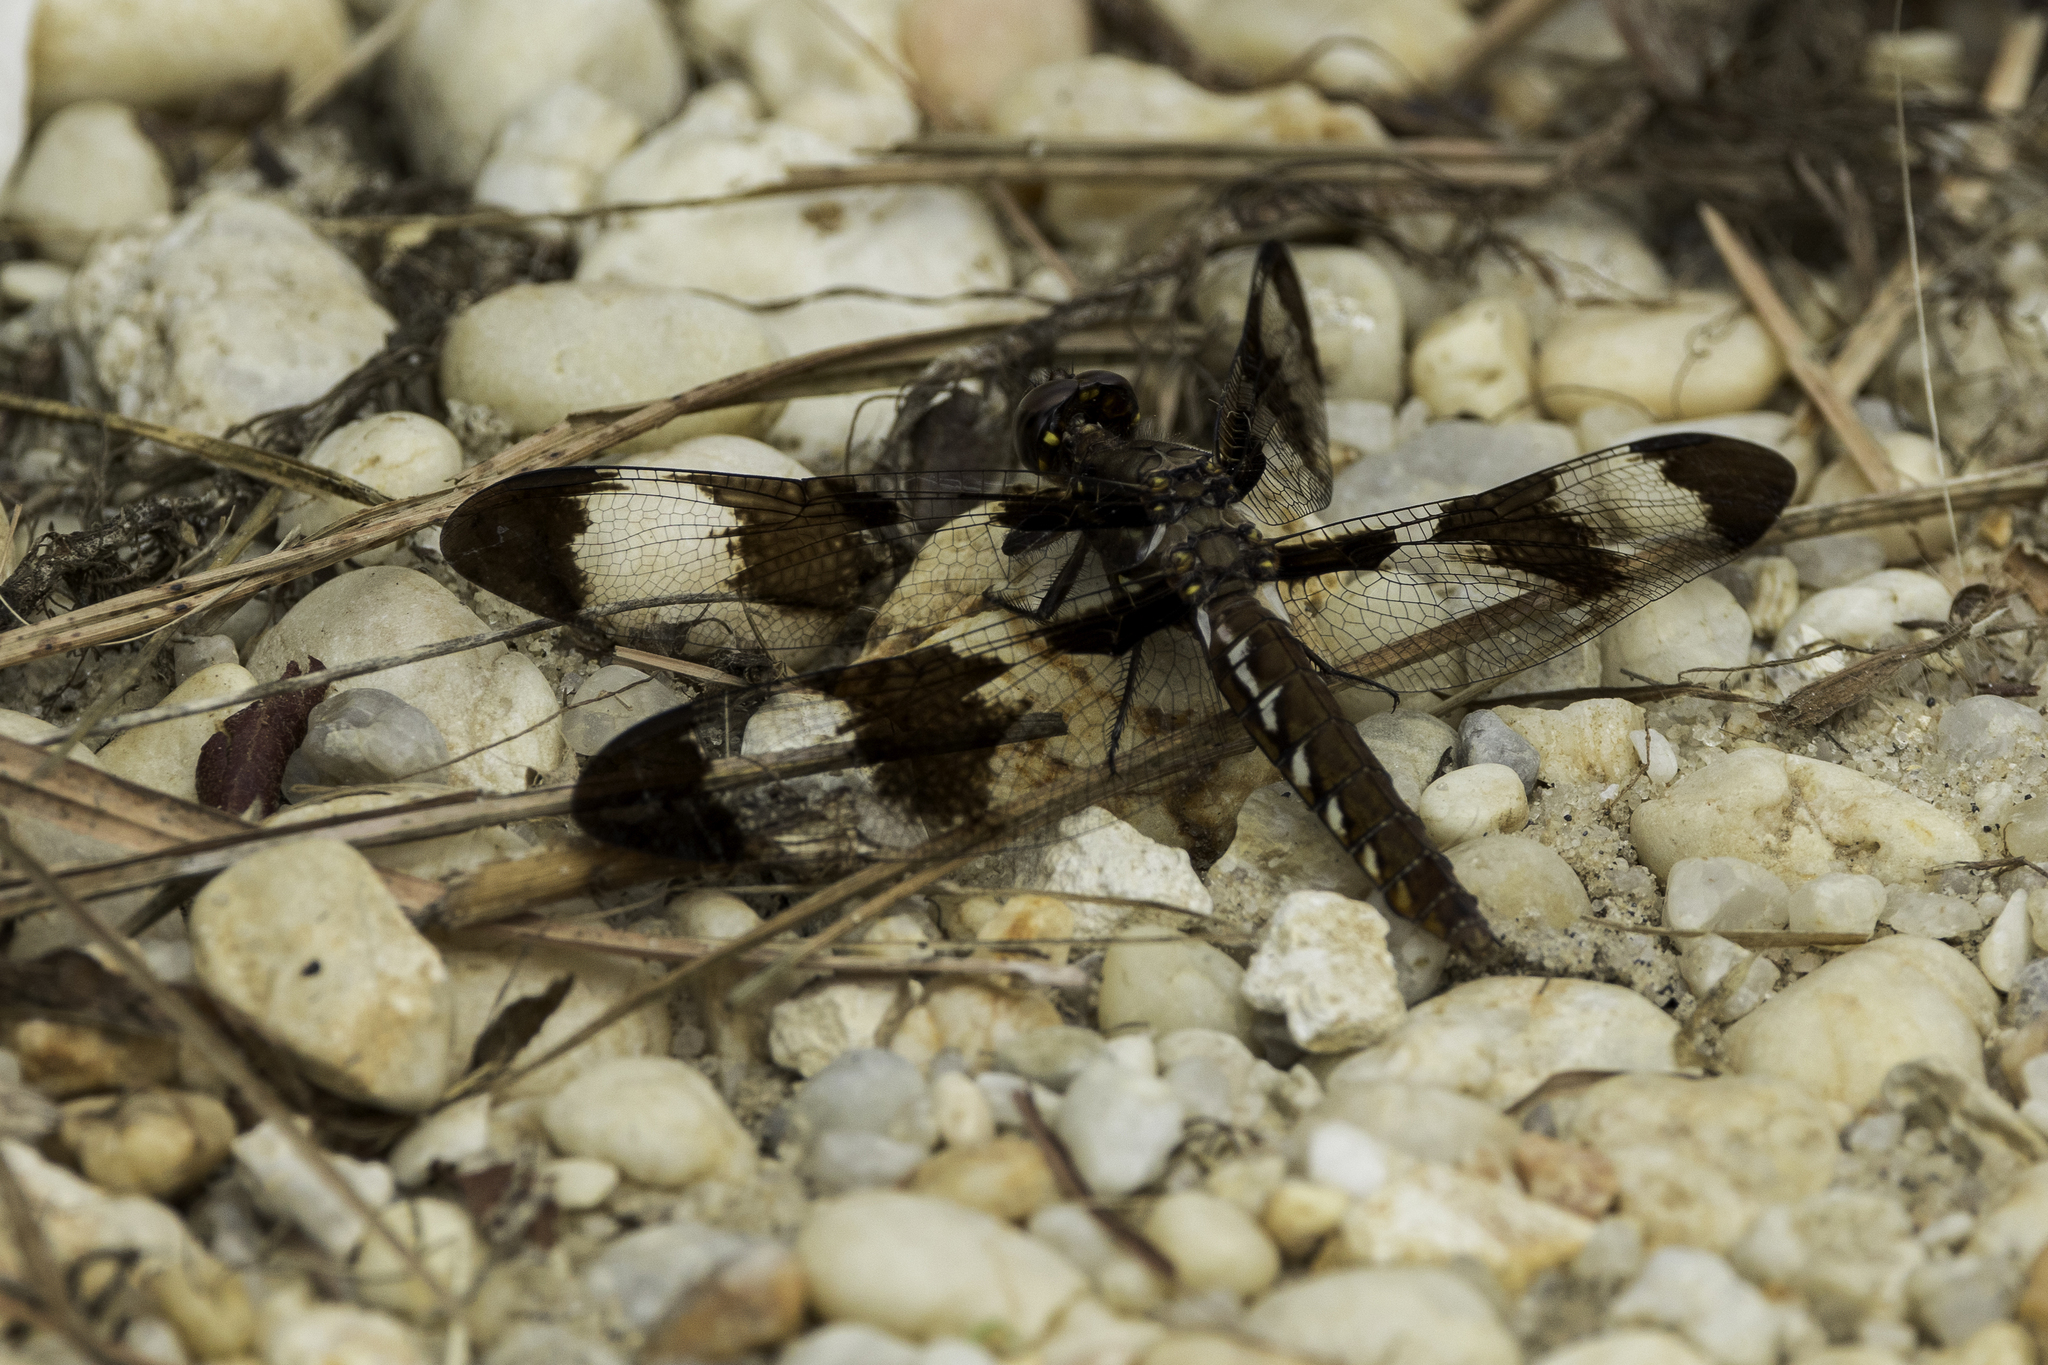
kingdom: Animalia
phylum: Arthropoda
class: Insecta
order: Odonata
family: Libellulidae
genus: Plathemis
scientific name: Plathemis lydia
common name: Common whitetail
